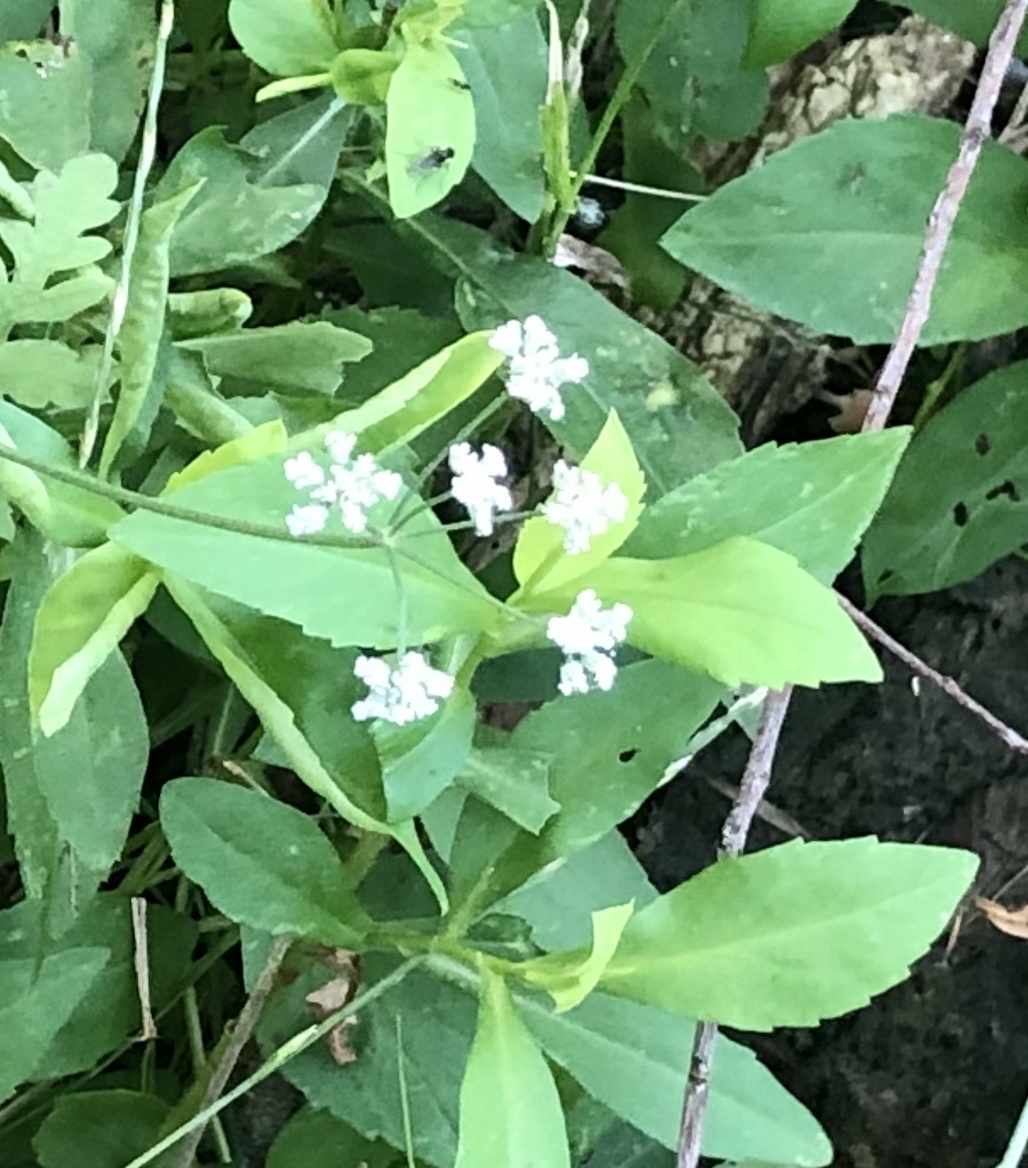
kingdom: Plantae
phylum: Tracheophyta
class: Magnoliopsida
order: Apiales
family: Apiaceae
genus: Torilis
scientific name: Torilis arvensis
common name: Spreading hedge-parsley
